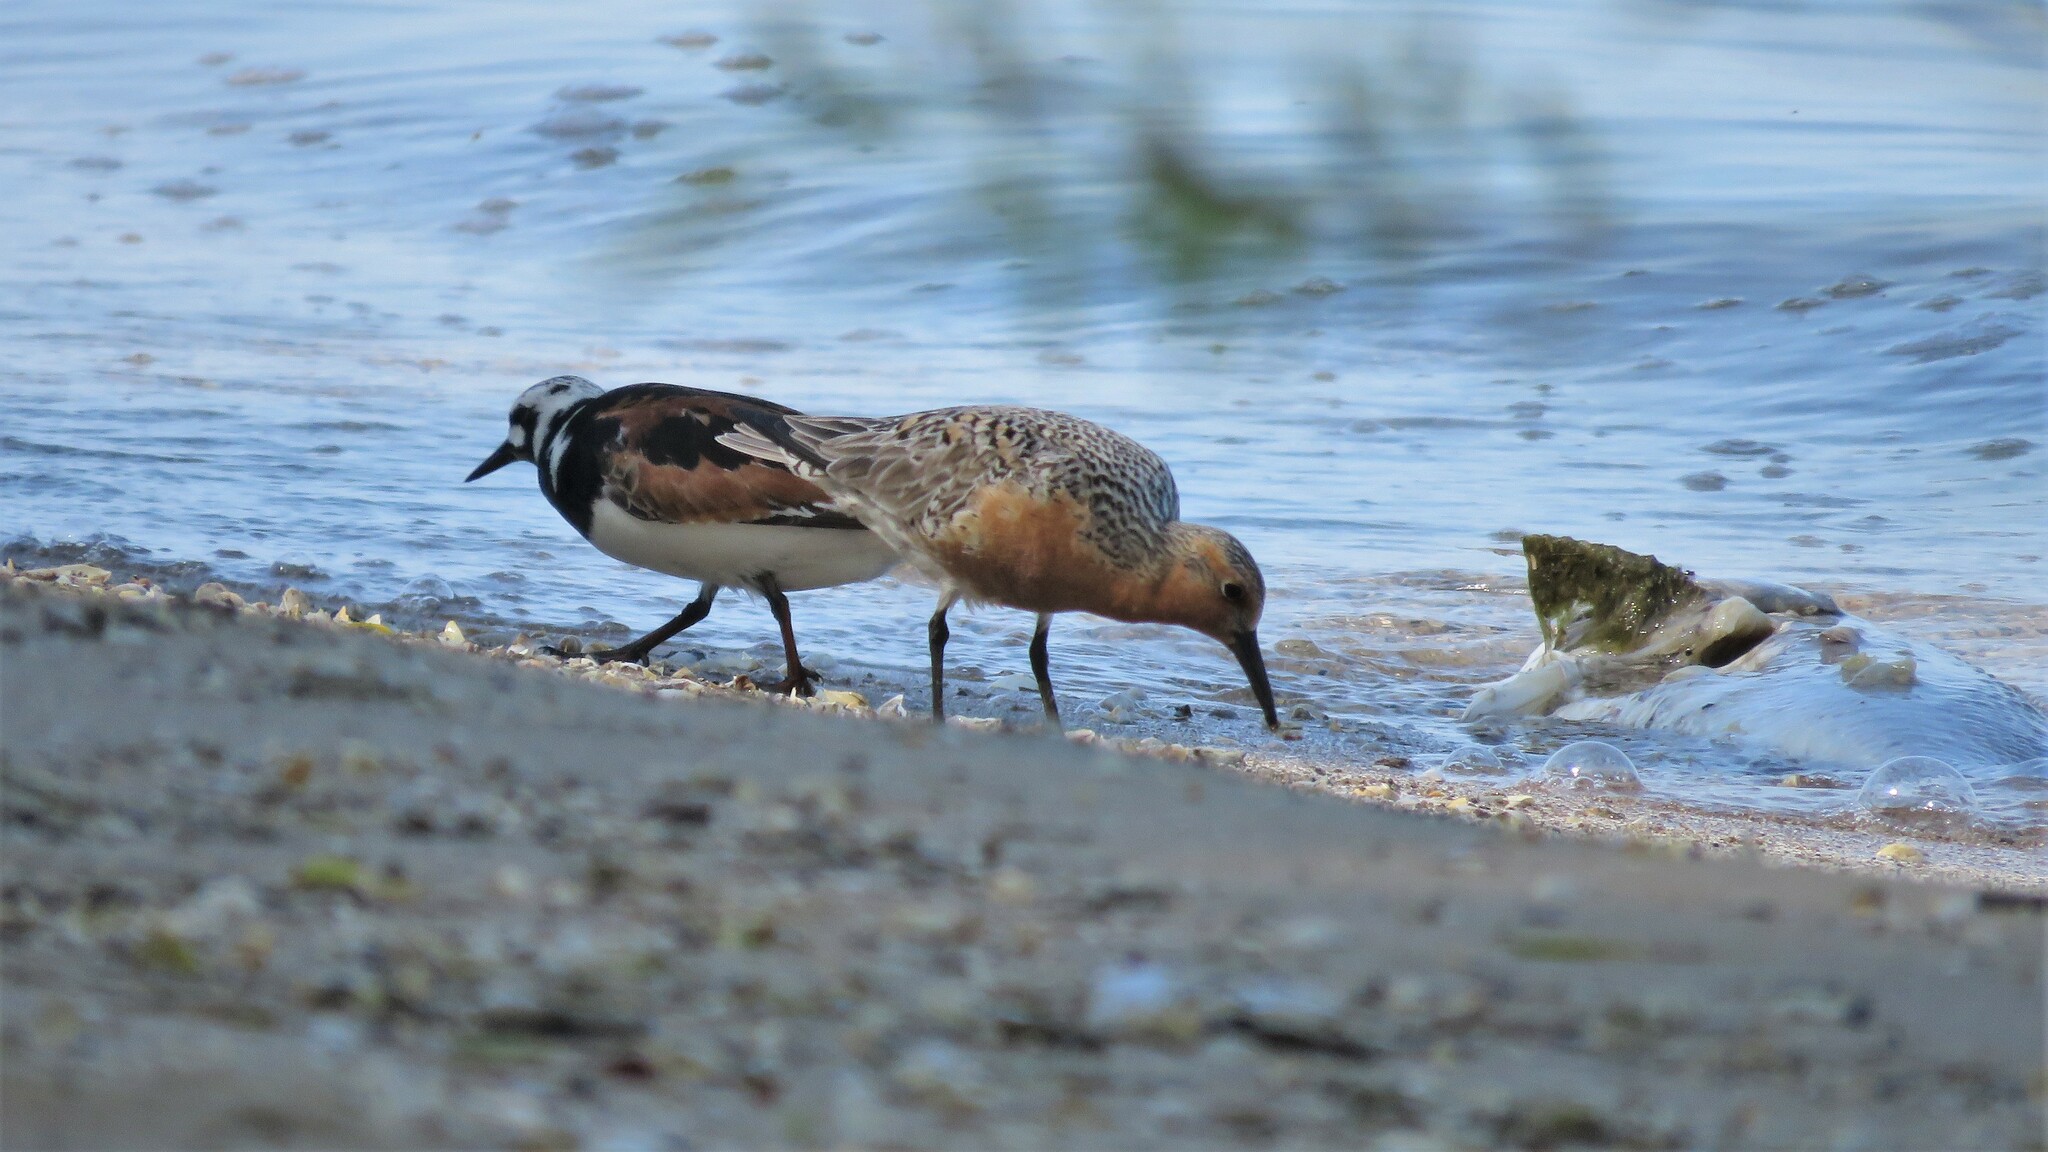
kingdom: Animalia
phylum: Chordata
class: Aves
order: Charadriiformes
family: Scolopacidae
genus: Calidris
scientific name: Calidris canutus
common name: Red knot
